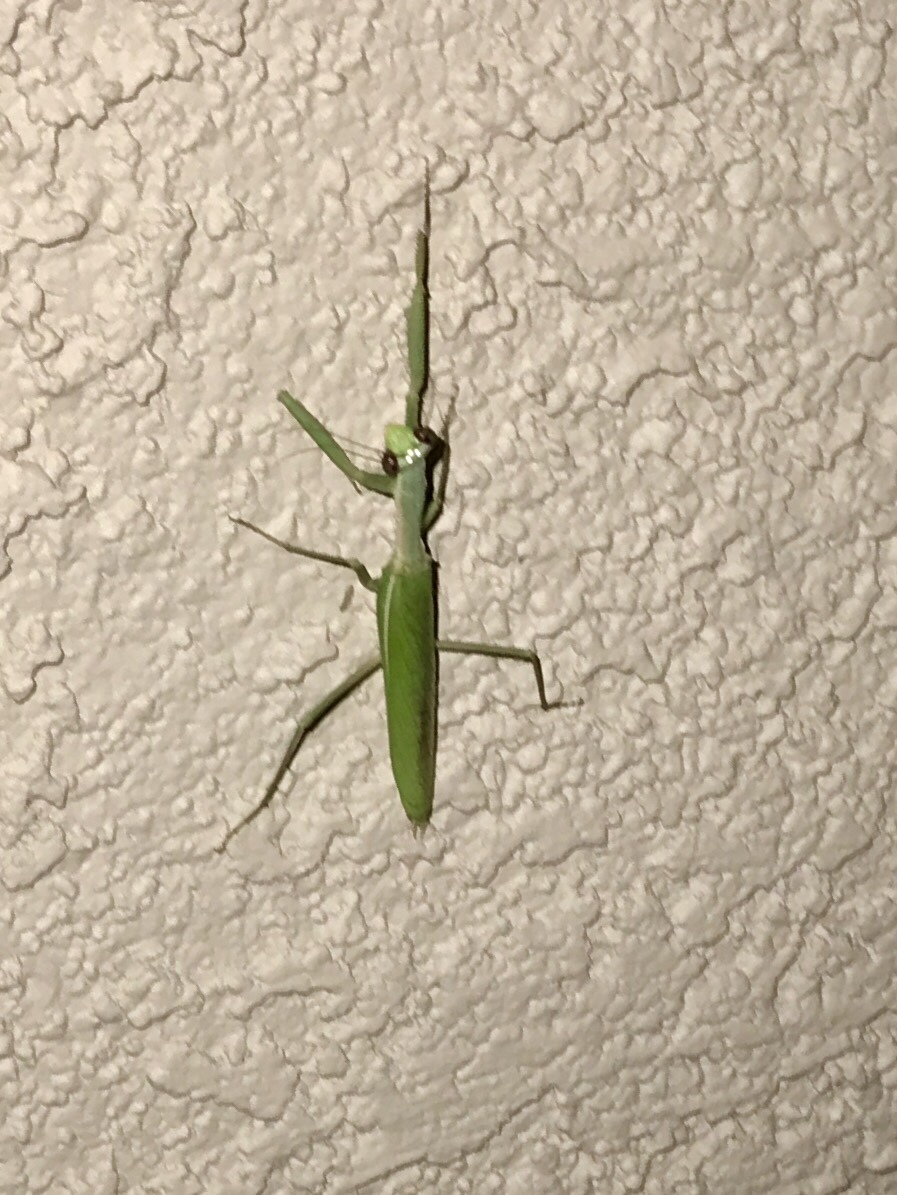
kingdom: Animalia
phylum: Arthropoda
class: Insecta
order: Mantodea
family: Eremiaphilidae
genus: Iris
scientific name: Iris oratoria
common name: Mediterranean mantis
